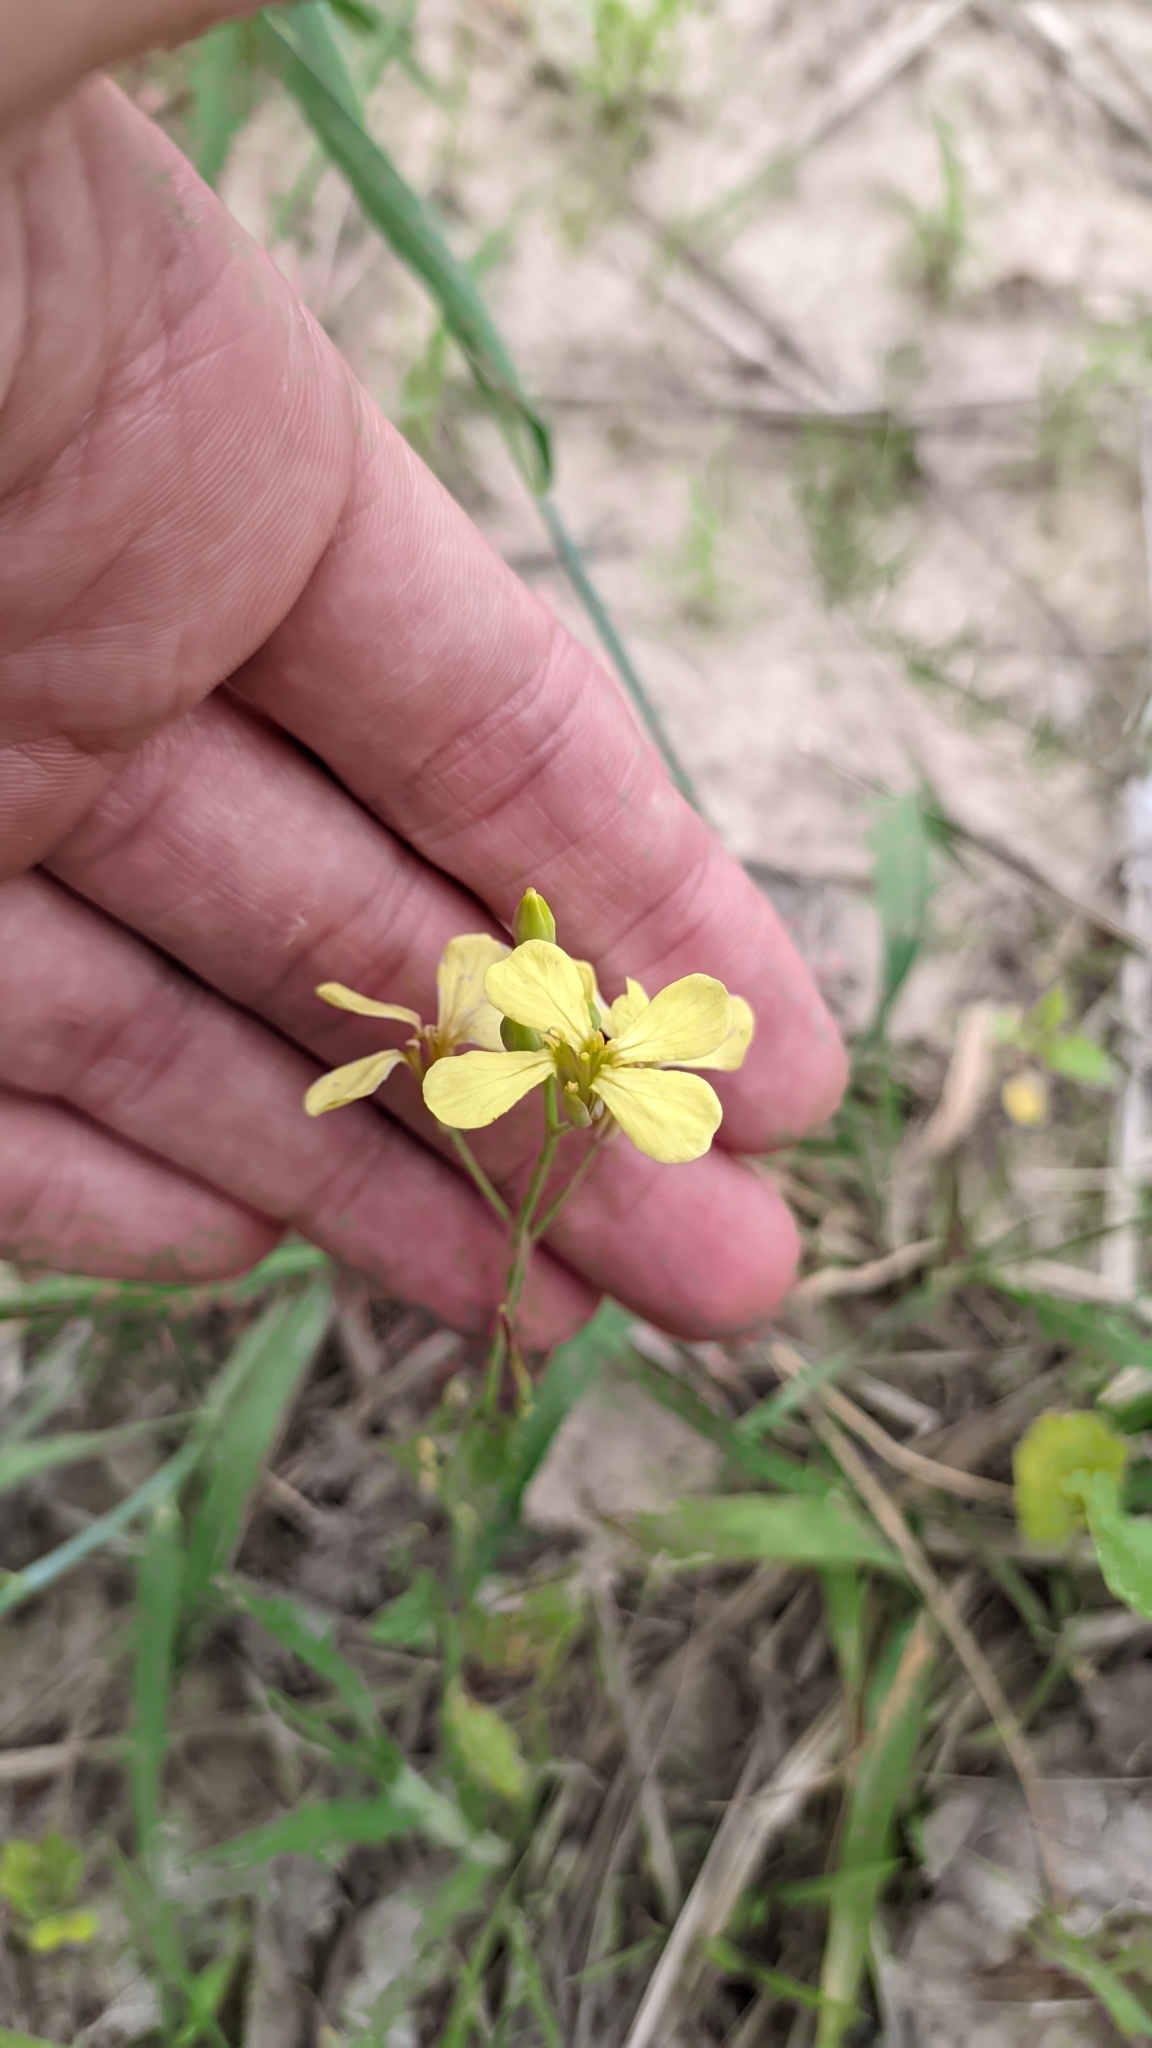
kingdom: Plantae
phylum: Tracheophyta
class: Magnoliopsida
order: Brassicales
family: Brassicaceae
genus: Raphanus
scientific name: Raphanus raphanistrum
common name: Wild radish
